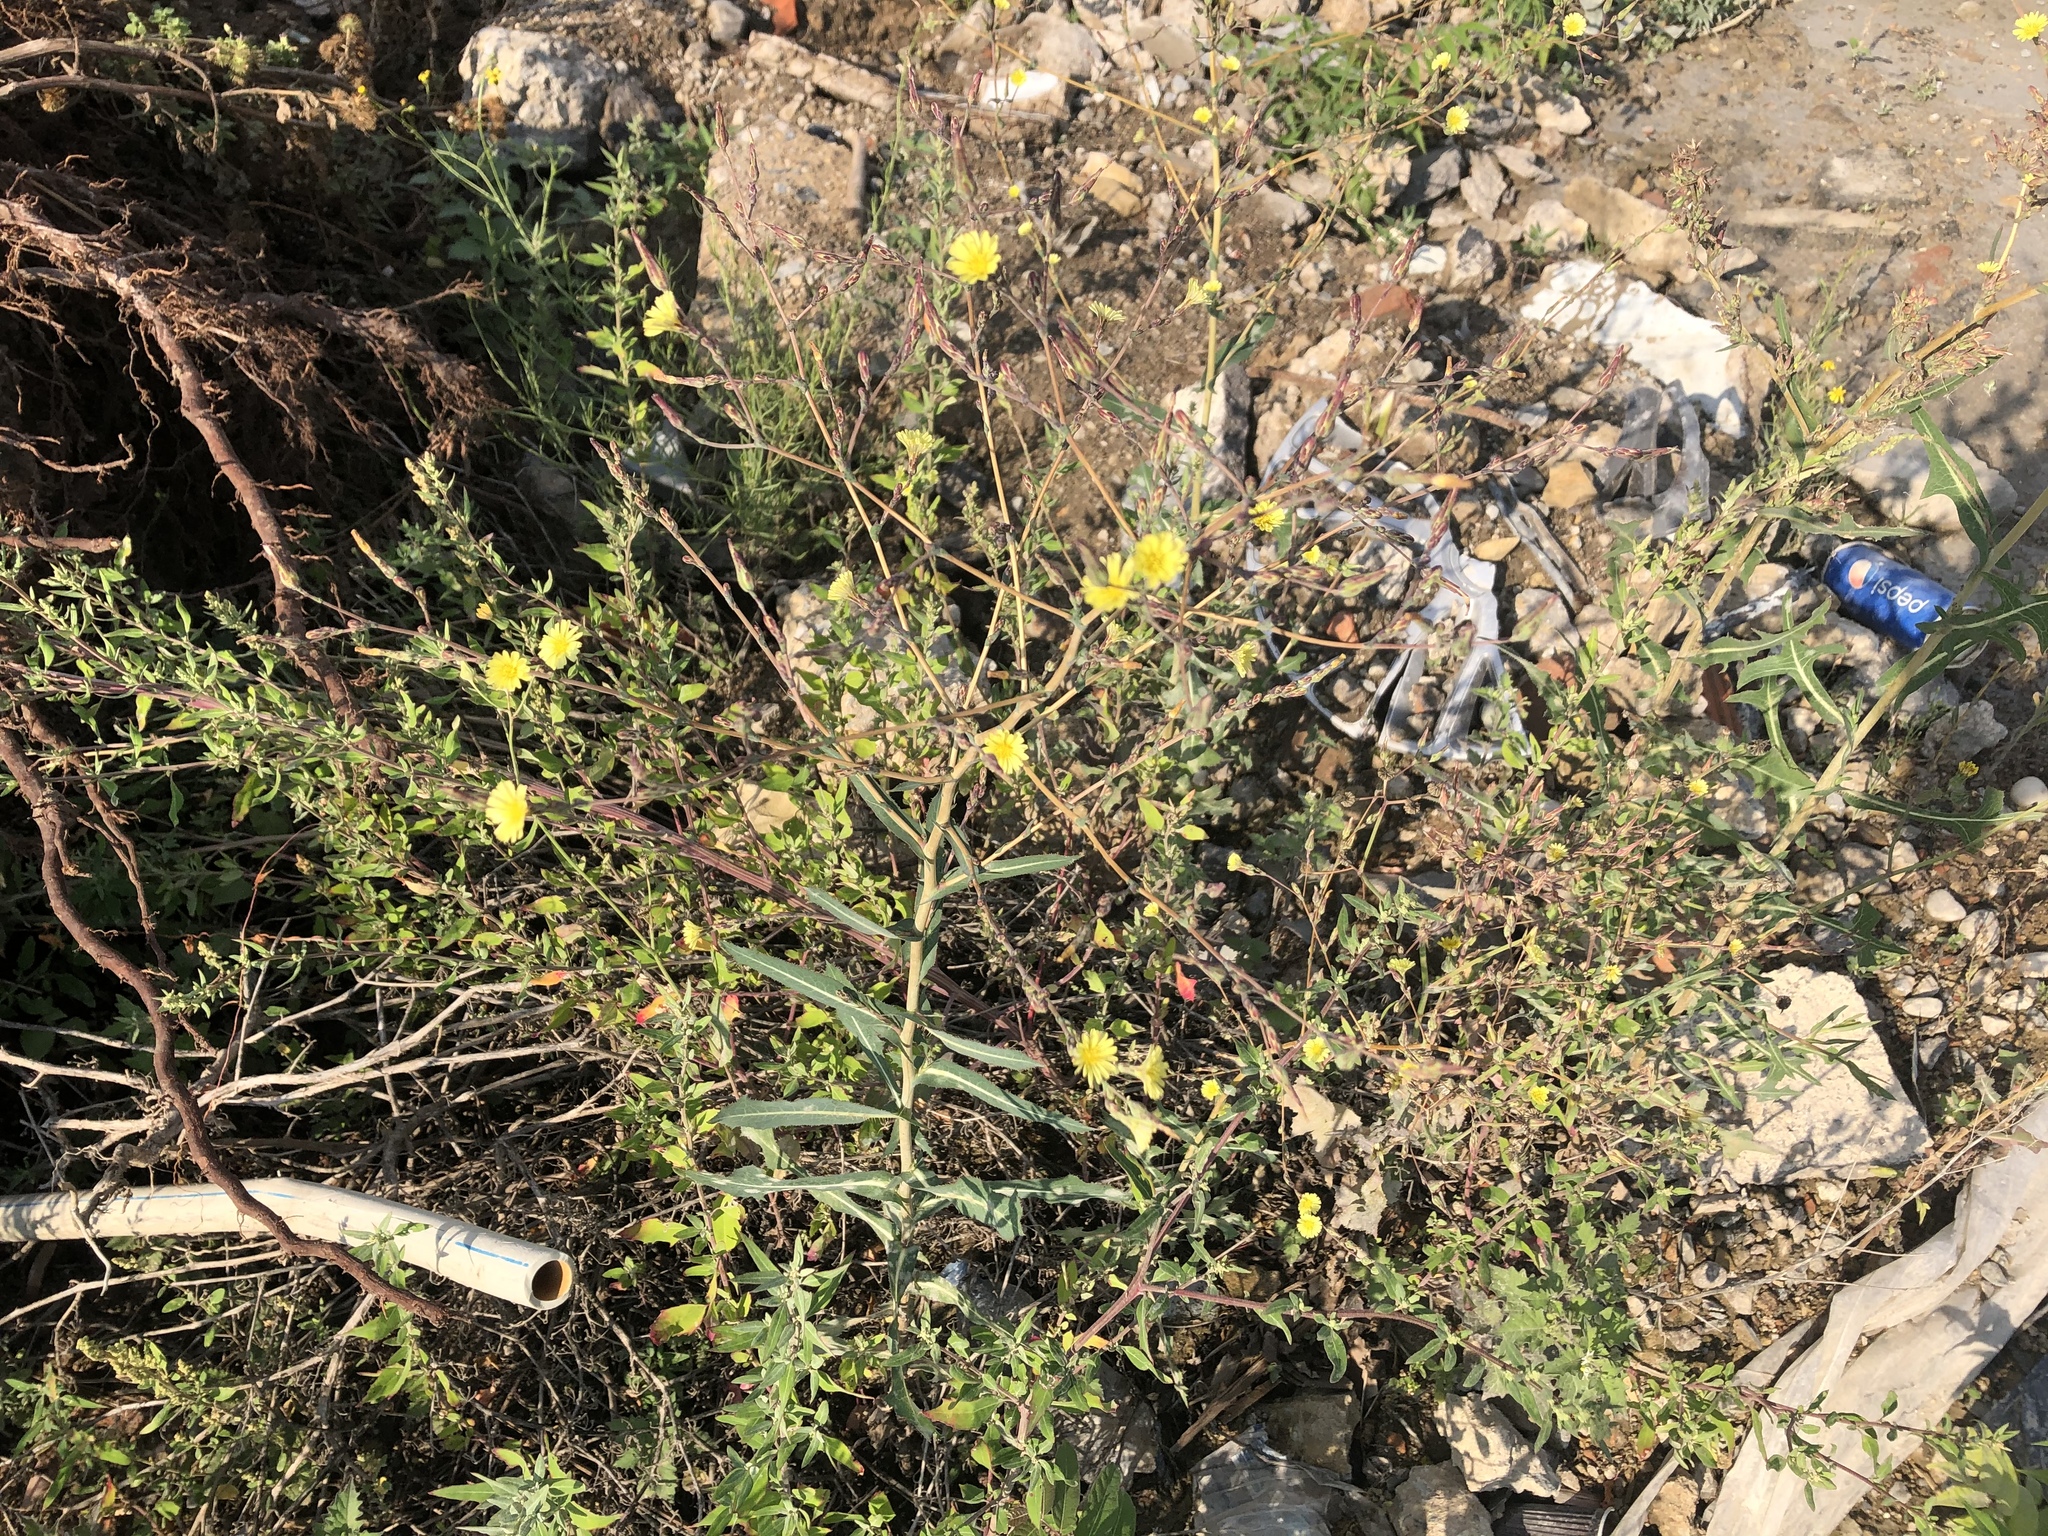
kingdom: Plantae
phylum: Tracheophyta
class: Magnoliopsida
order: Asterales
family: Asteraceae
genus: Lactuca
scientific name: Lactuca serriola
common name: Prickly lettuce
